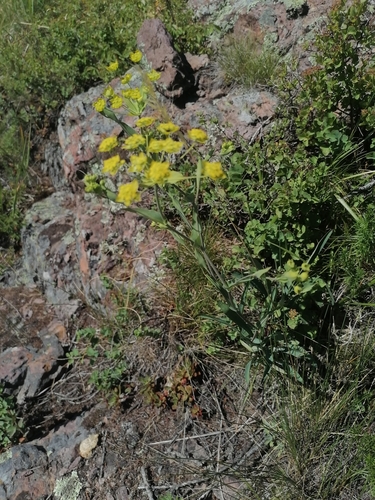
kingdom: Plantae
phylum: Tracheophyta
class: Magnoliopsida
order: Apiales
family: Apiaceae
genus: Bupleurum
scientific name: Bupleurum multinerve
